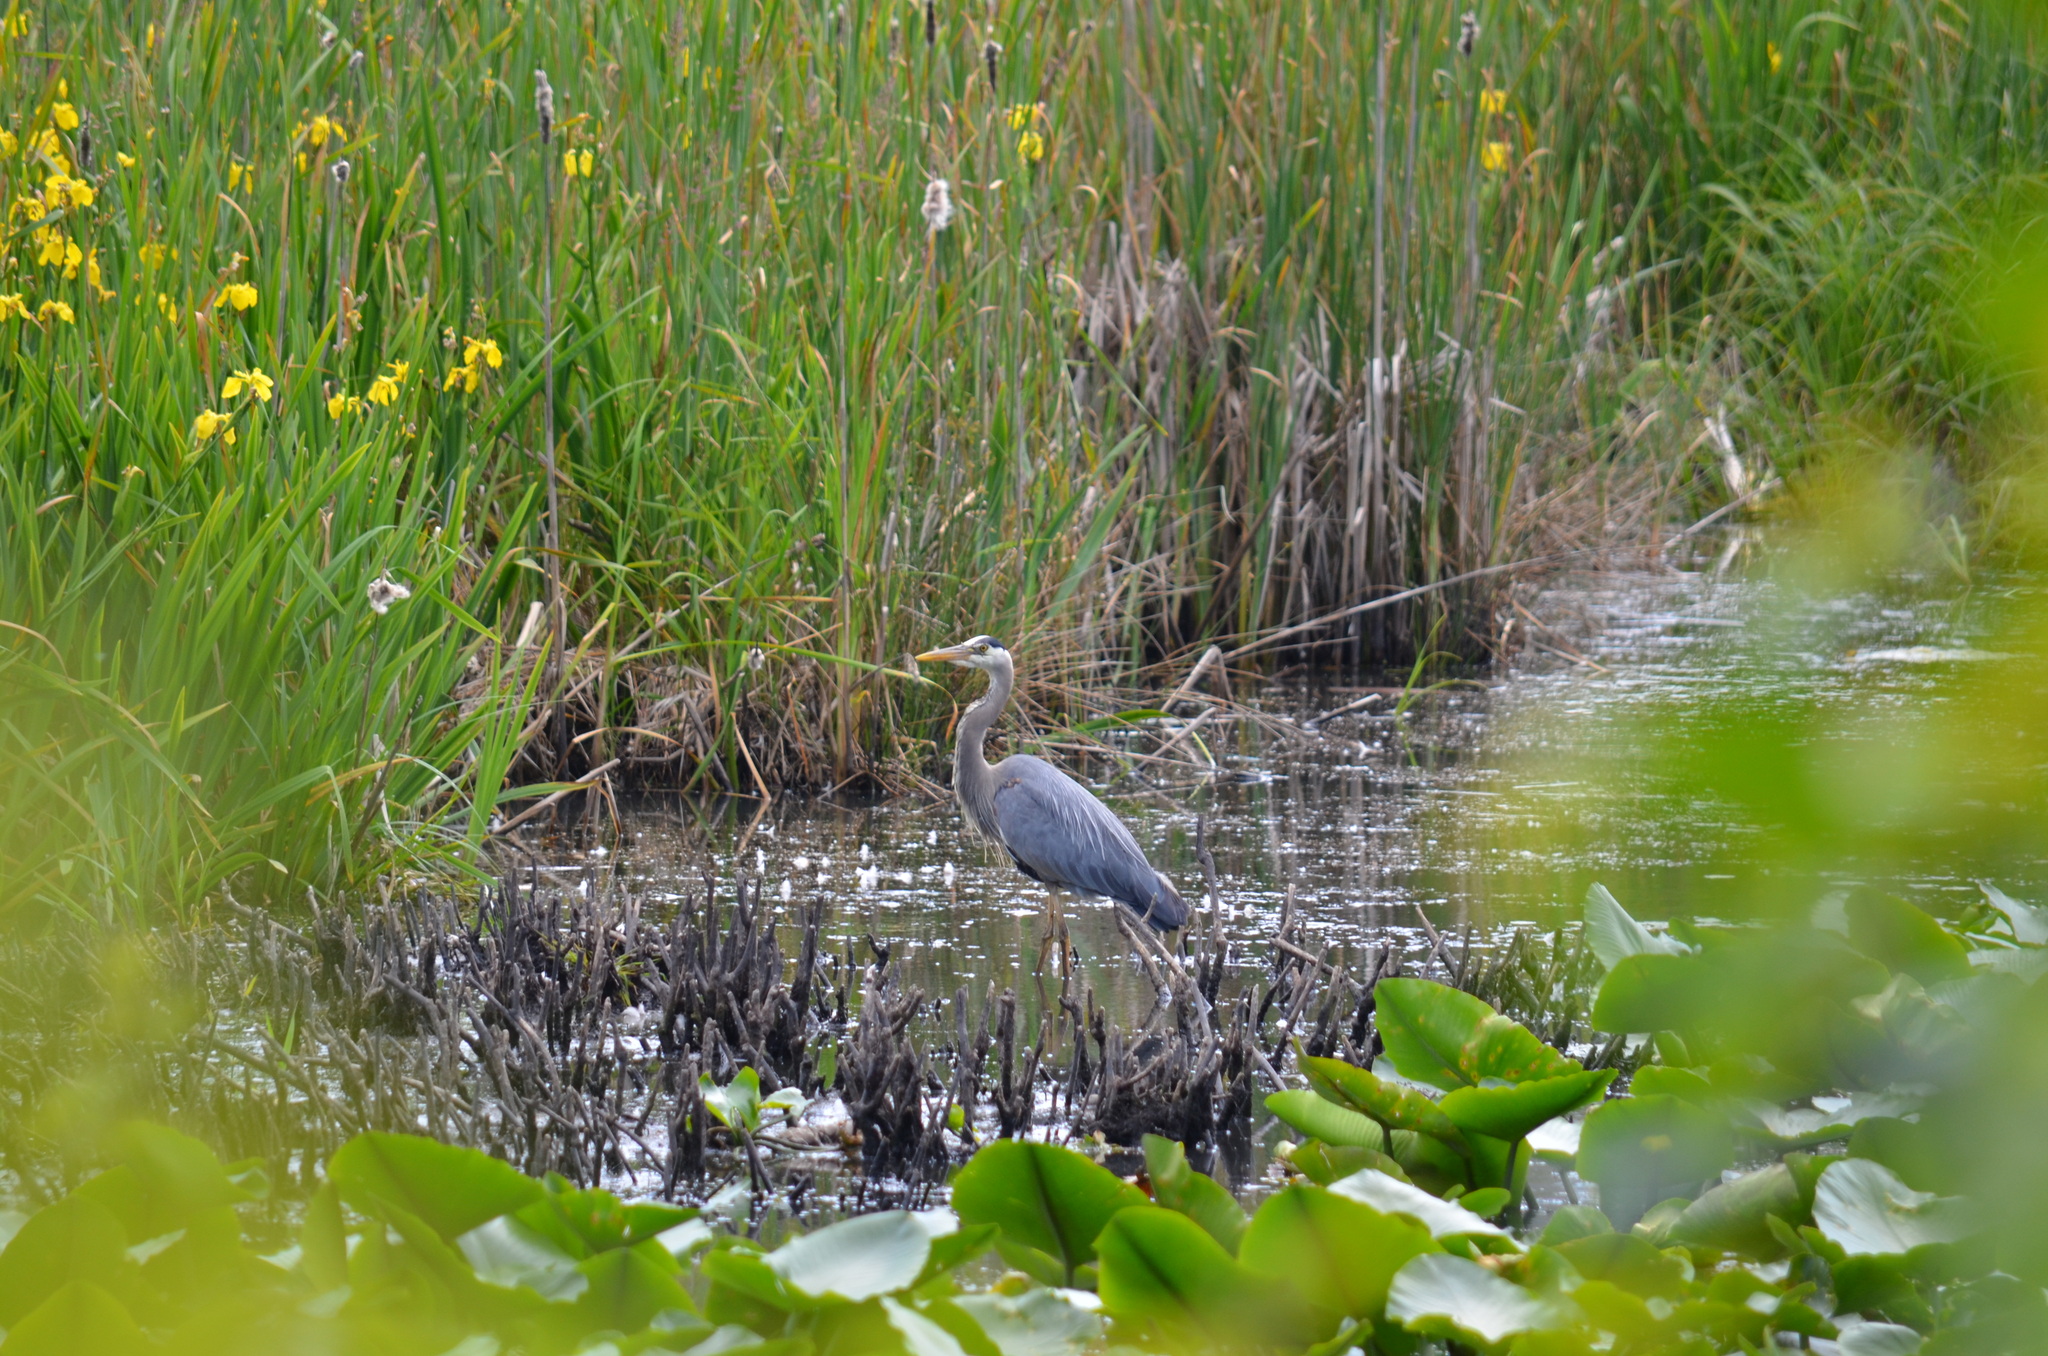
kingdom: Animalia
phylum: Chordata
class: Aves
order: Pelecaniformes
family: Ardeidae
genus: Ardea
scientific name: Ardea herodias
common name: Great blue heron
